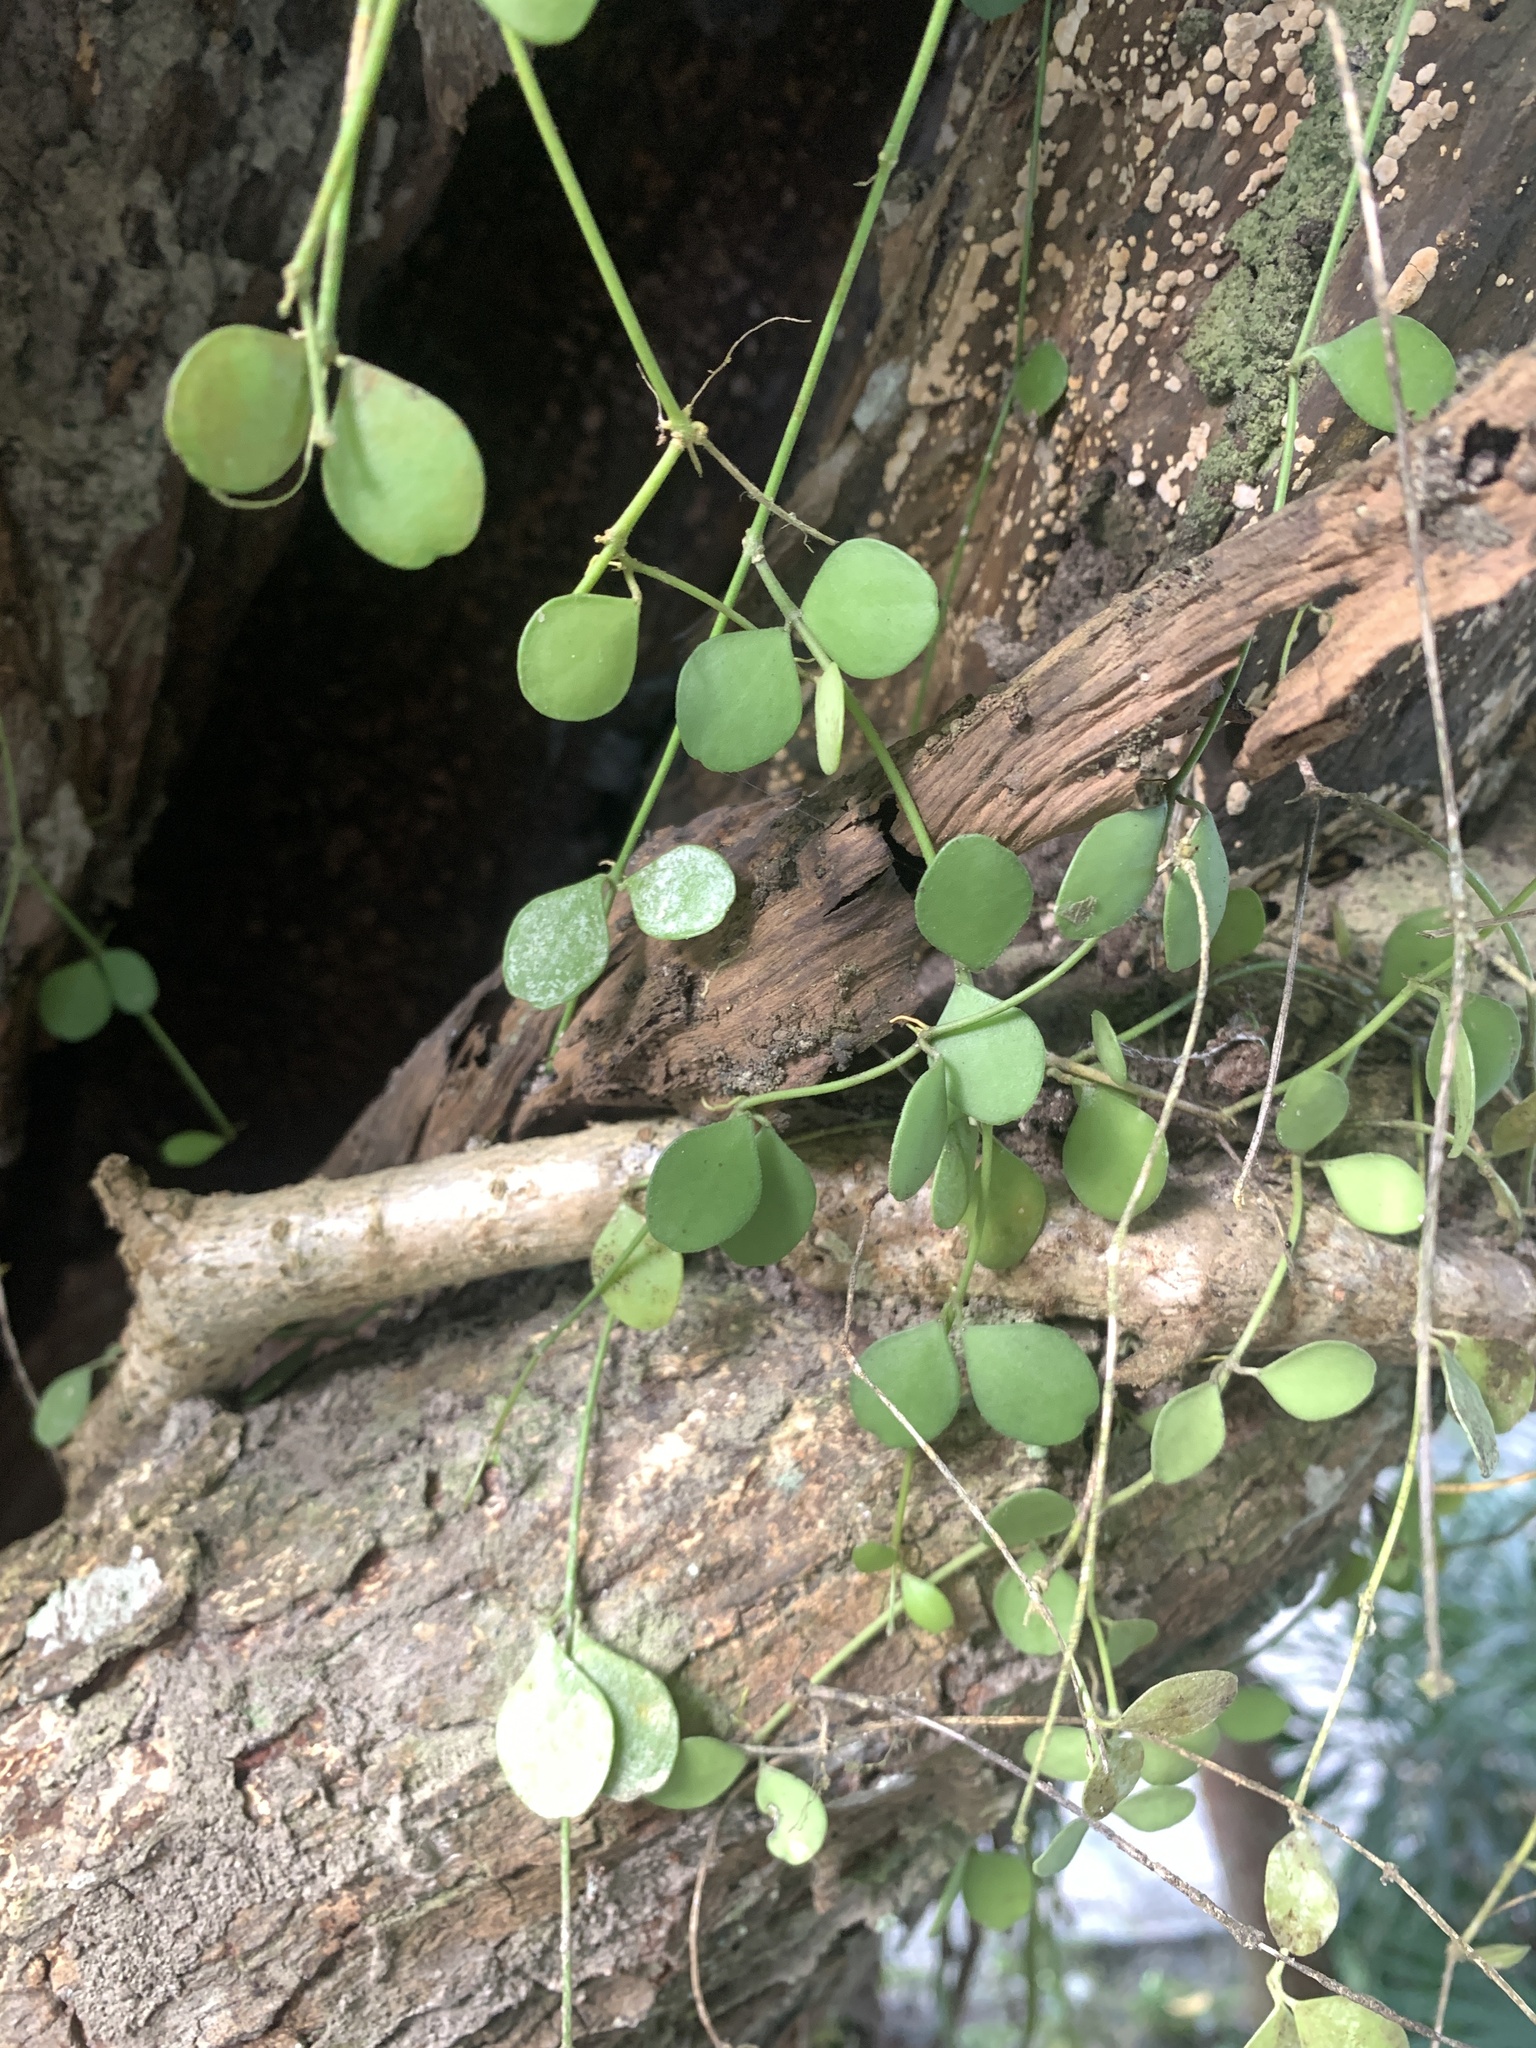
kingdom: Plantae
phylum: Tracheophyta
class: Magnoliopsida
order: Gentianales
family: Apocynaceae
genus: Dischidia
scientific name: Dischidia formosana
